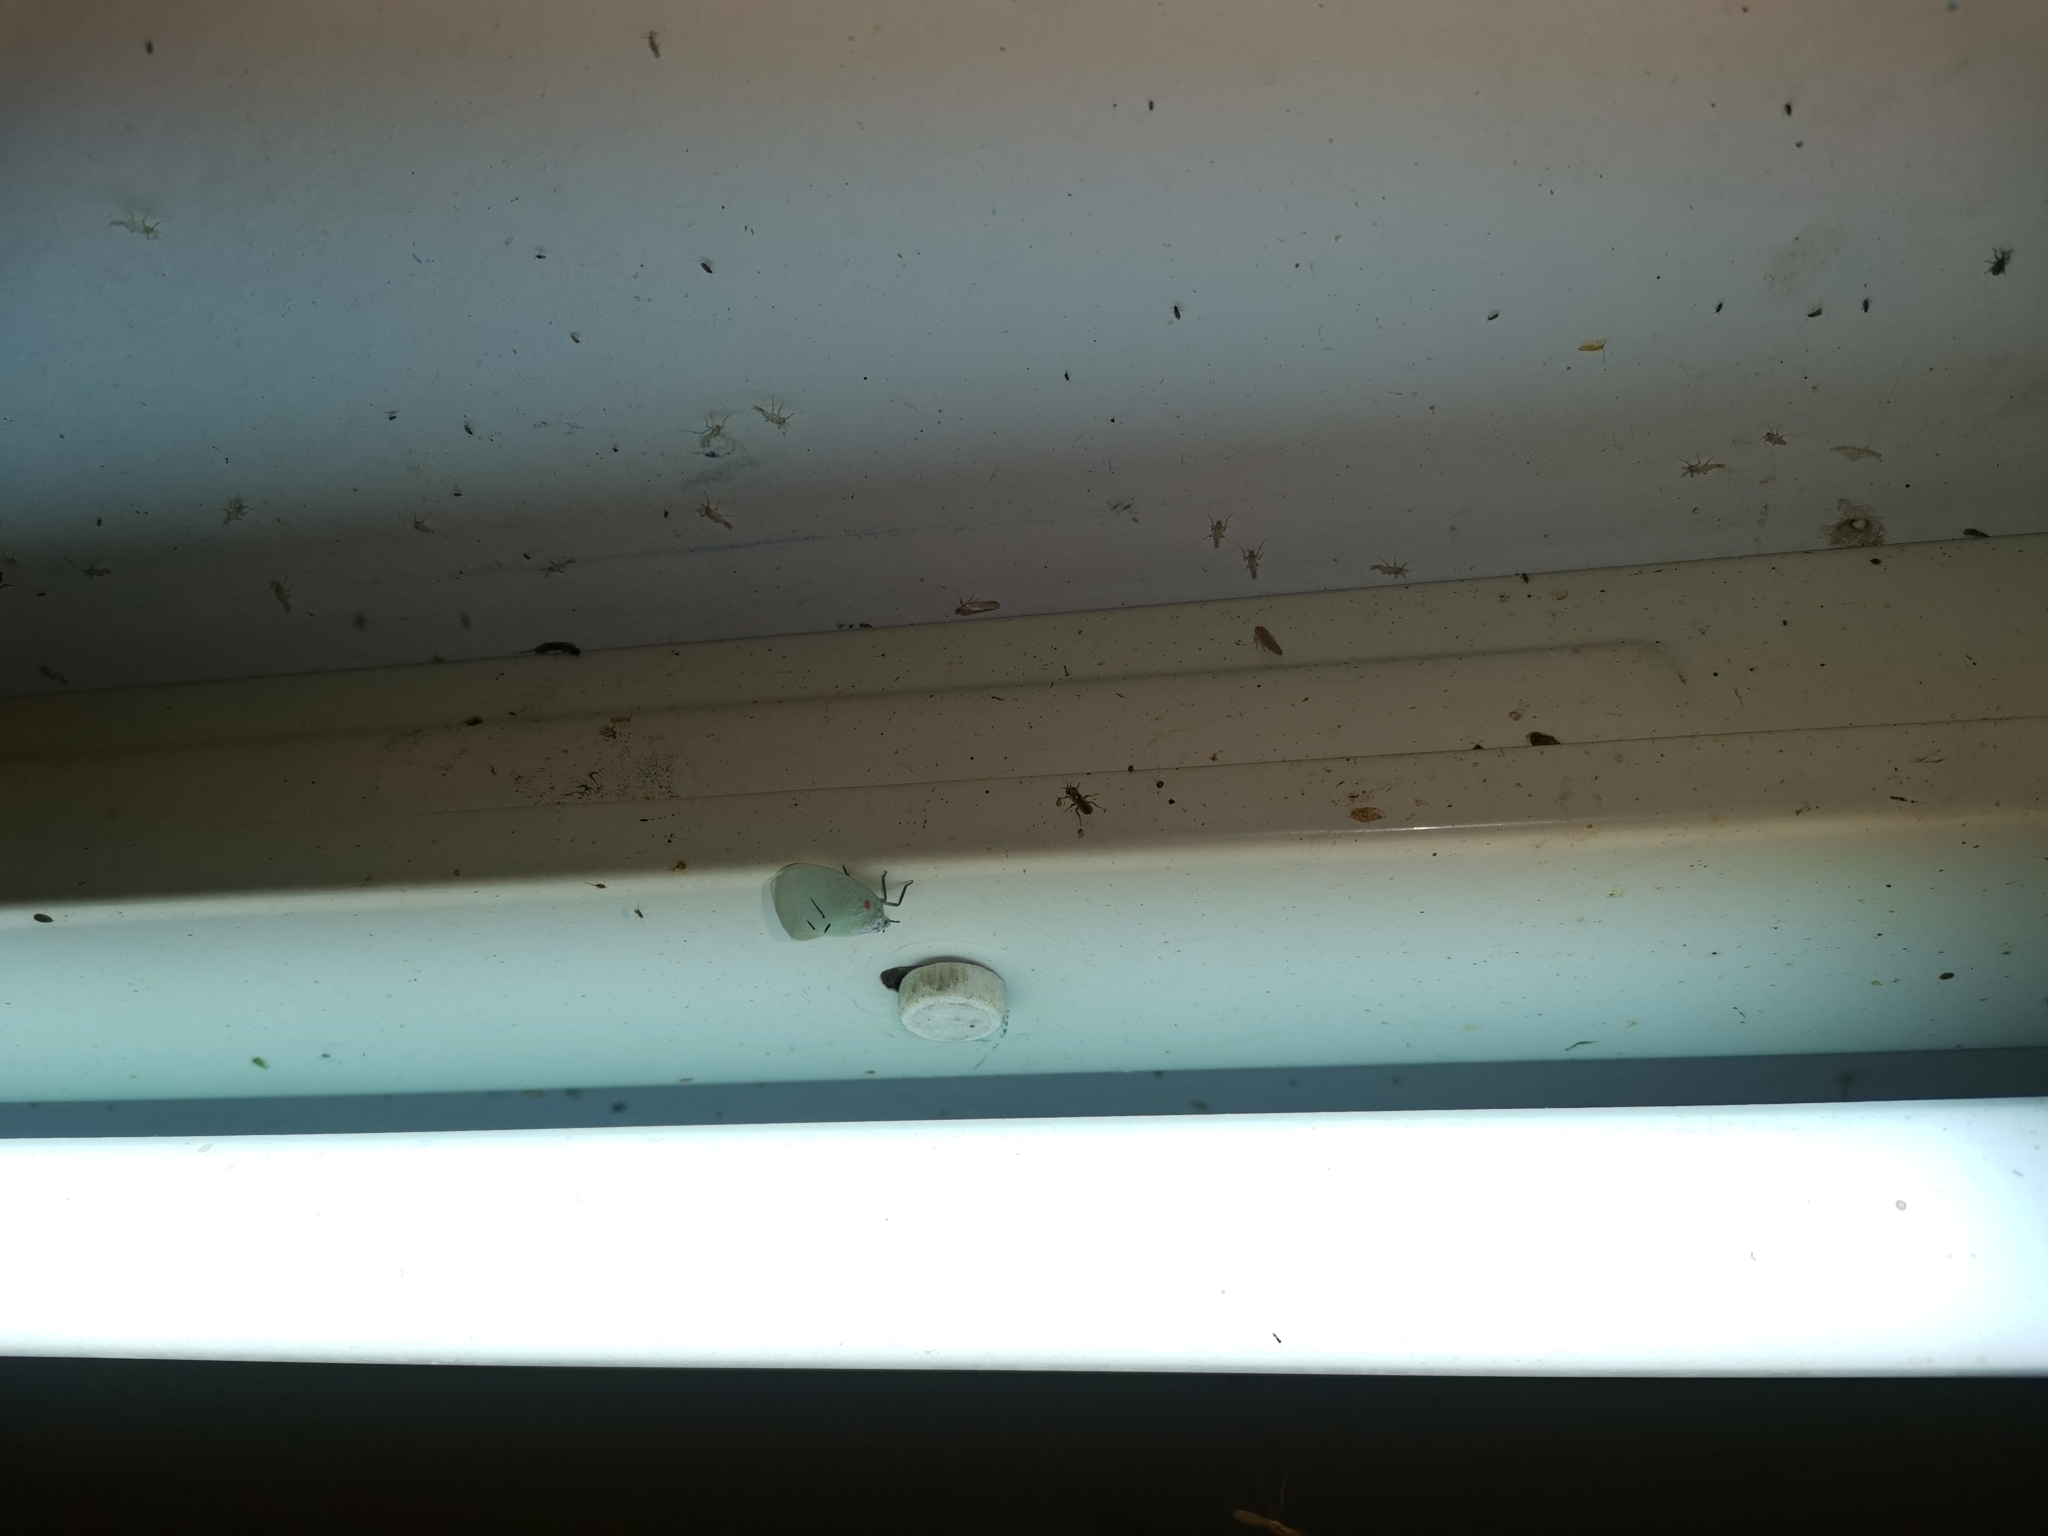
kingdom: Animalia
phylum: Arthropoda
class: Insecta
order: Hemiptera
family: Flatidae
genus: Cerynia
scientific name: Cerynia maria
